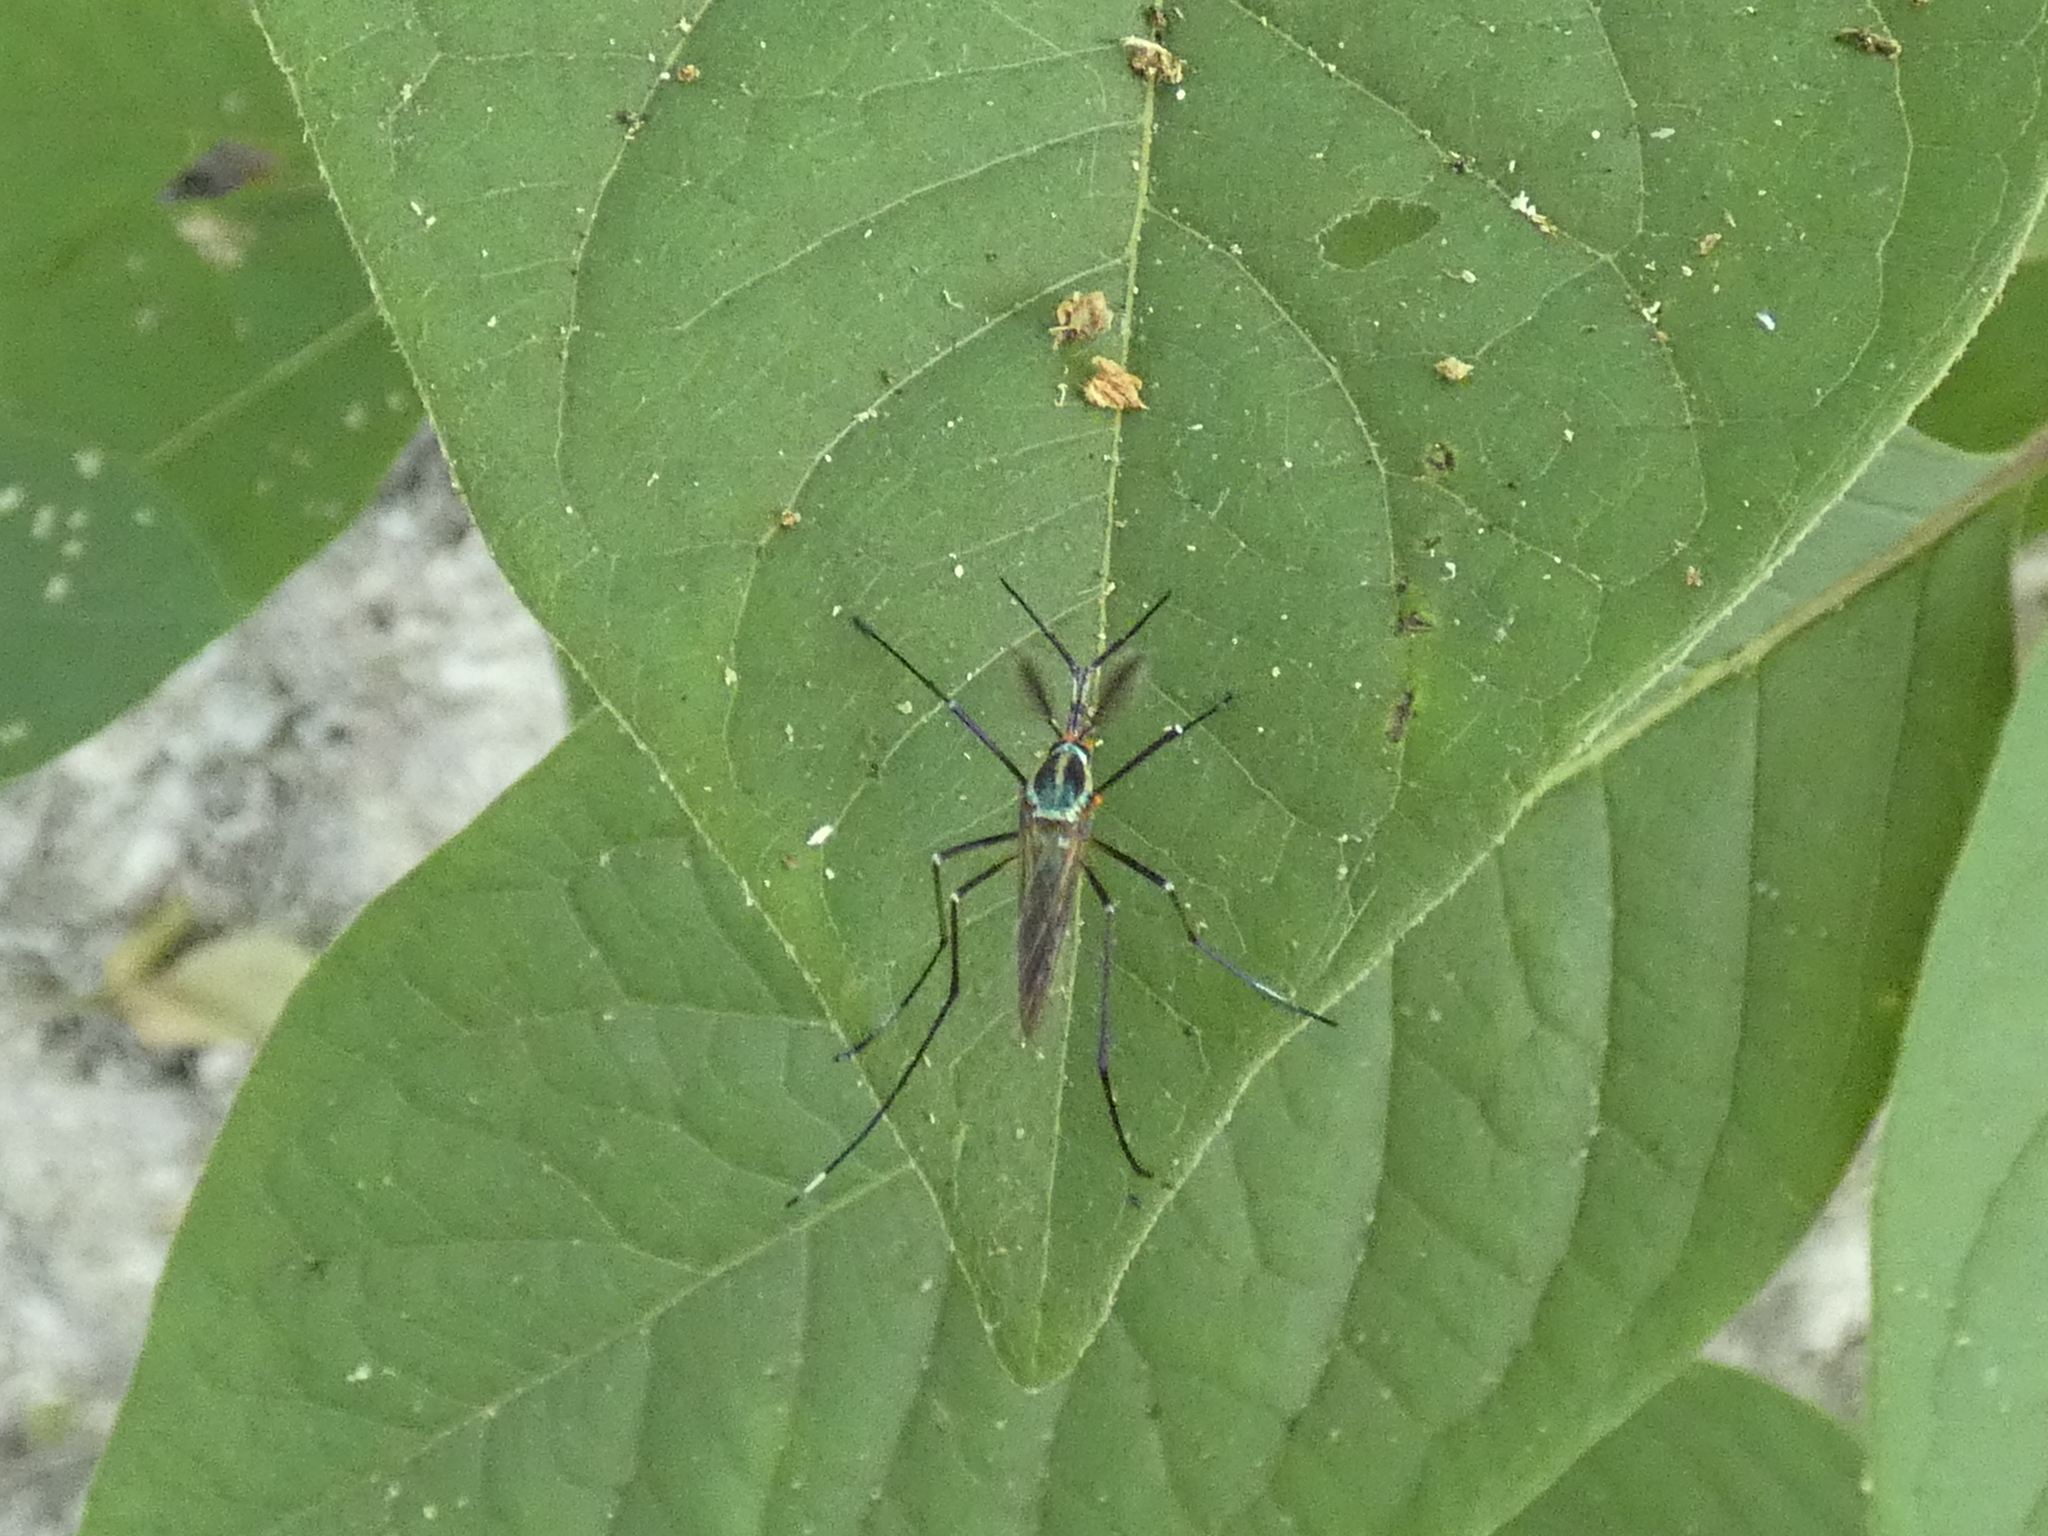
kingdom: Animalia
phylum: Arthropoda
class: Insecta
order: Diptera
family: Culicidae
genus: Toxorhynchites
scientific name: Toxorhynchites rutilus
